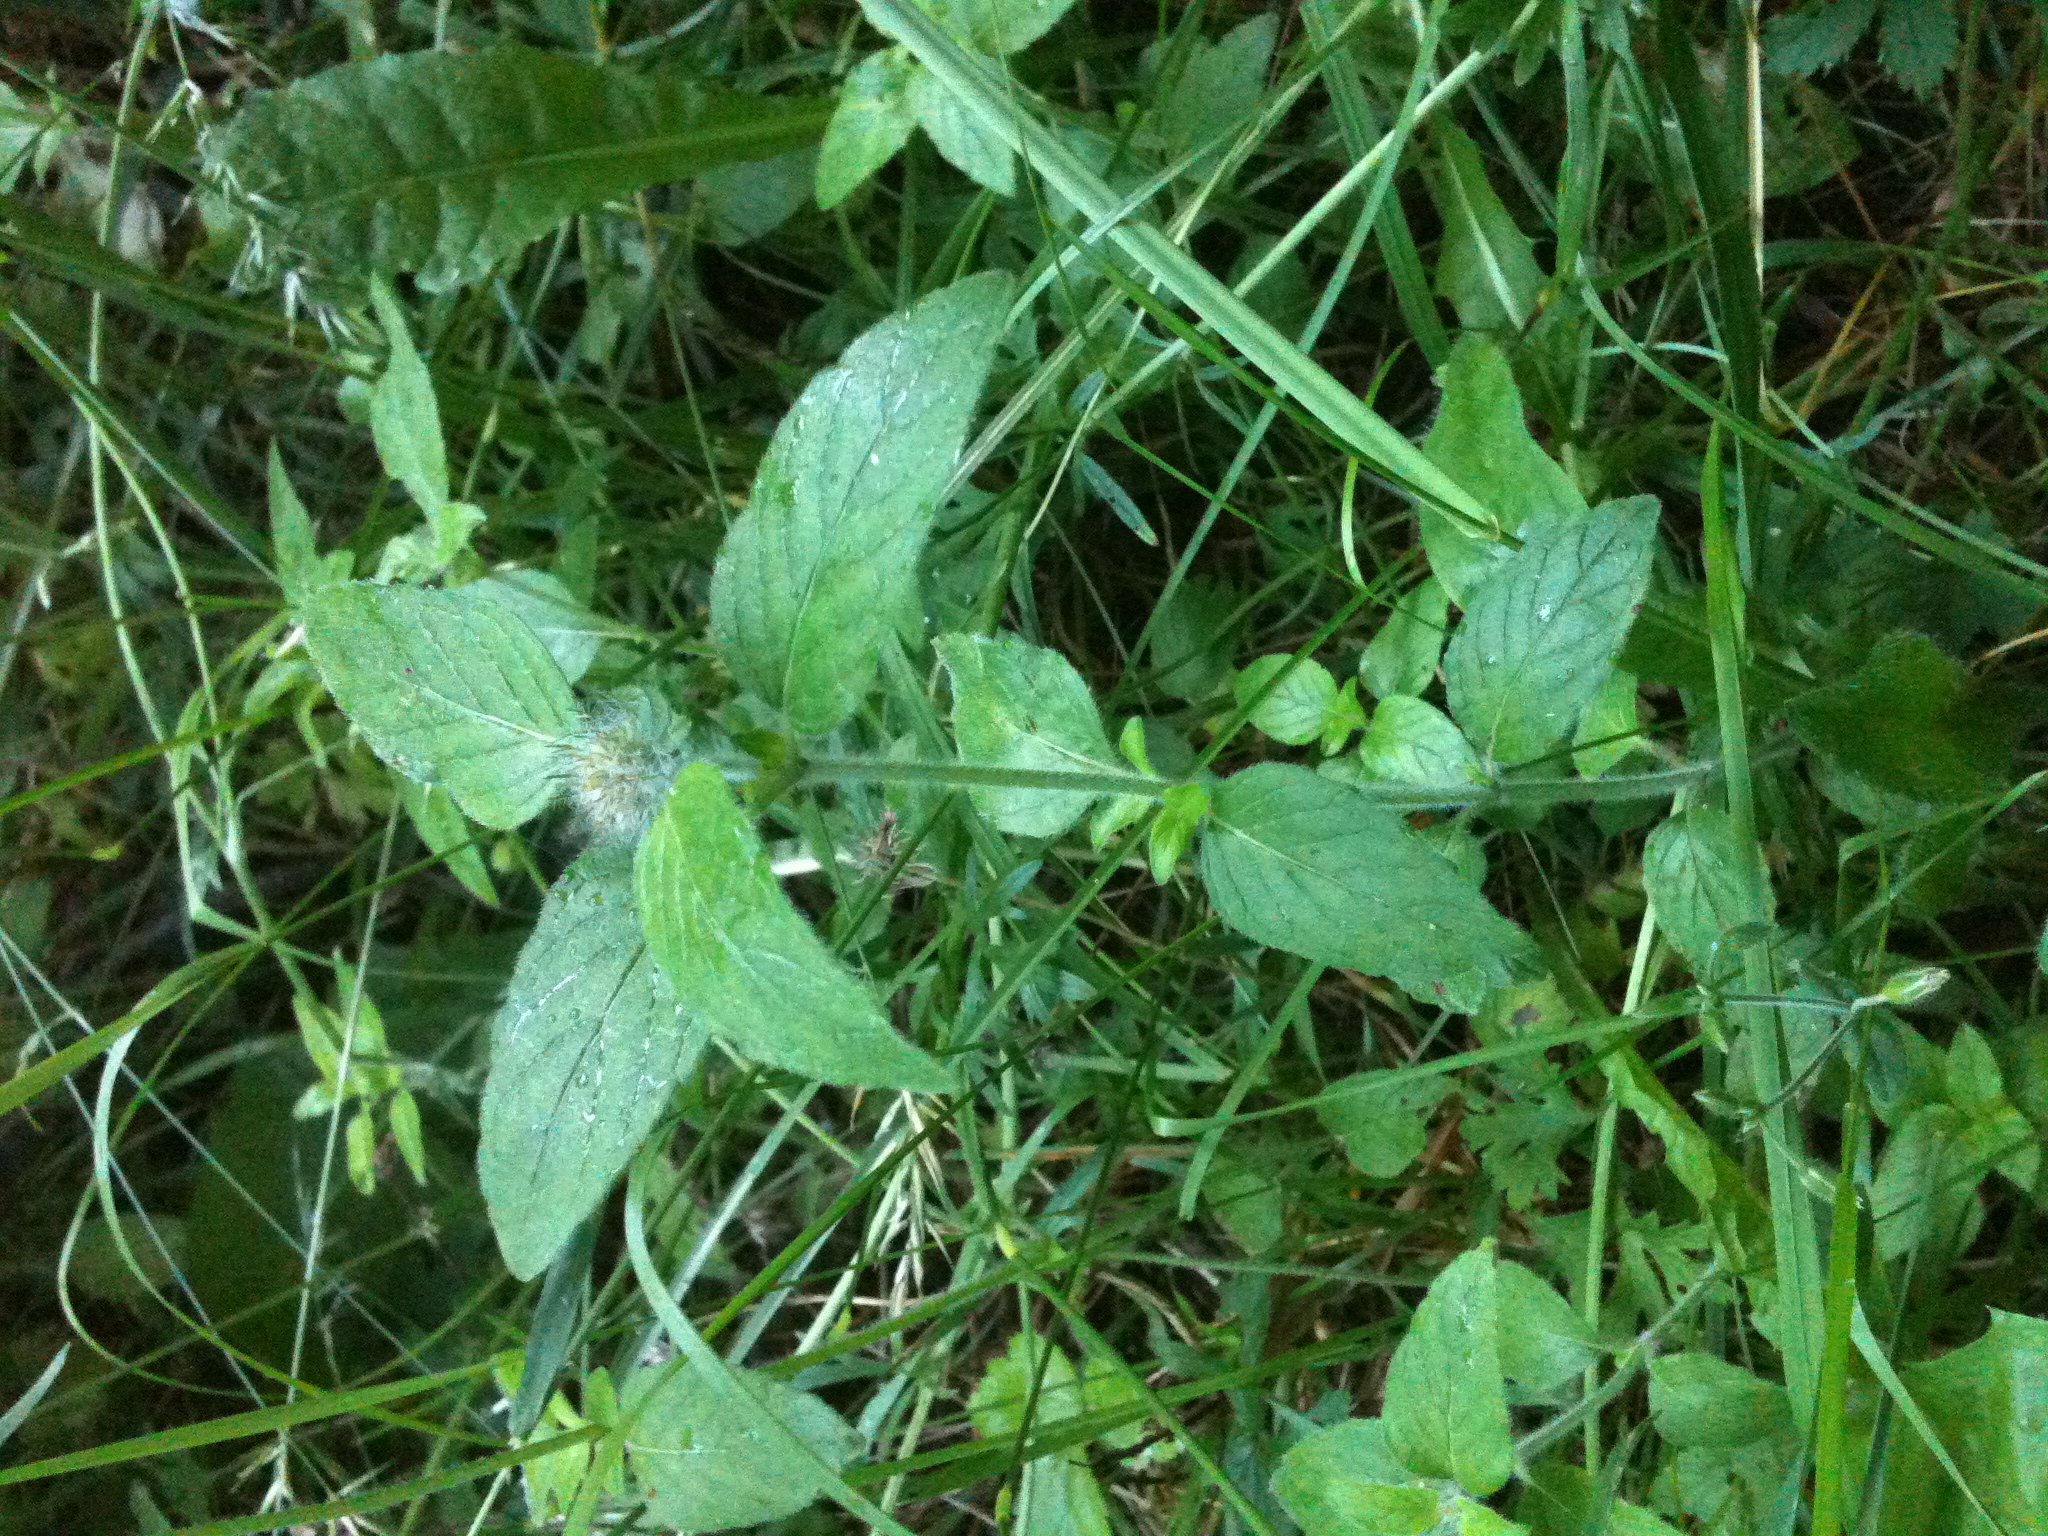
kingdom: Plantae
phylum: Tracheophyta
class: Magnoliopsida
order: Lamiales
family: Lamiaceae
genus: Clinopodium
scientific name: Clinopodium vulgare
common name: Wild basil
